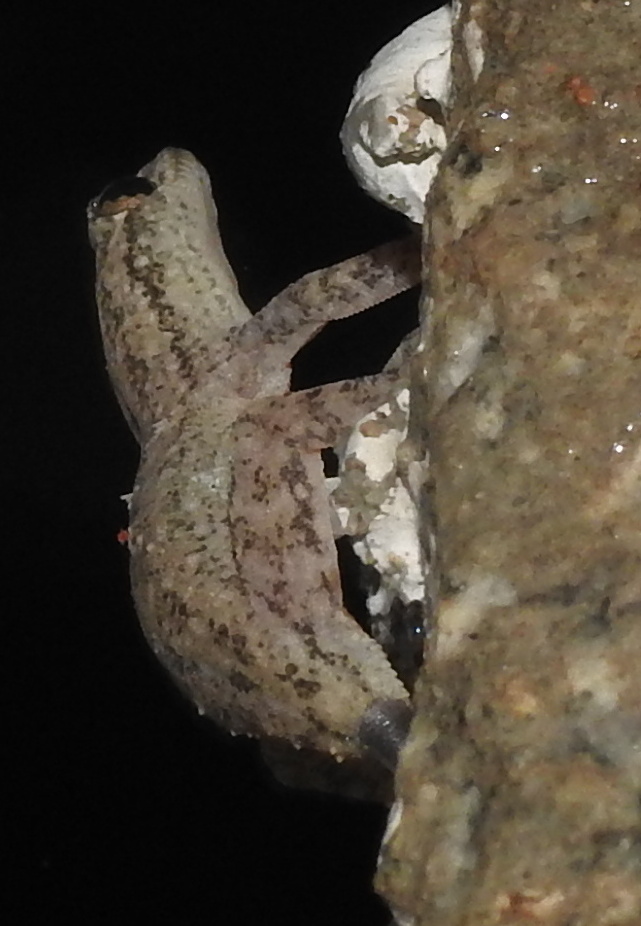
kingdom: Animalia
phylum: Chordata
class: Squamata
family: Gekkonidae
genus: Hemidactylus
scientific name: Hemidactylus frenatus
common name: Common house gecko
